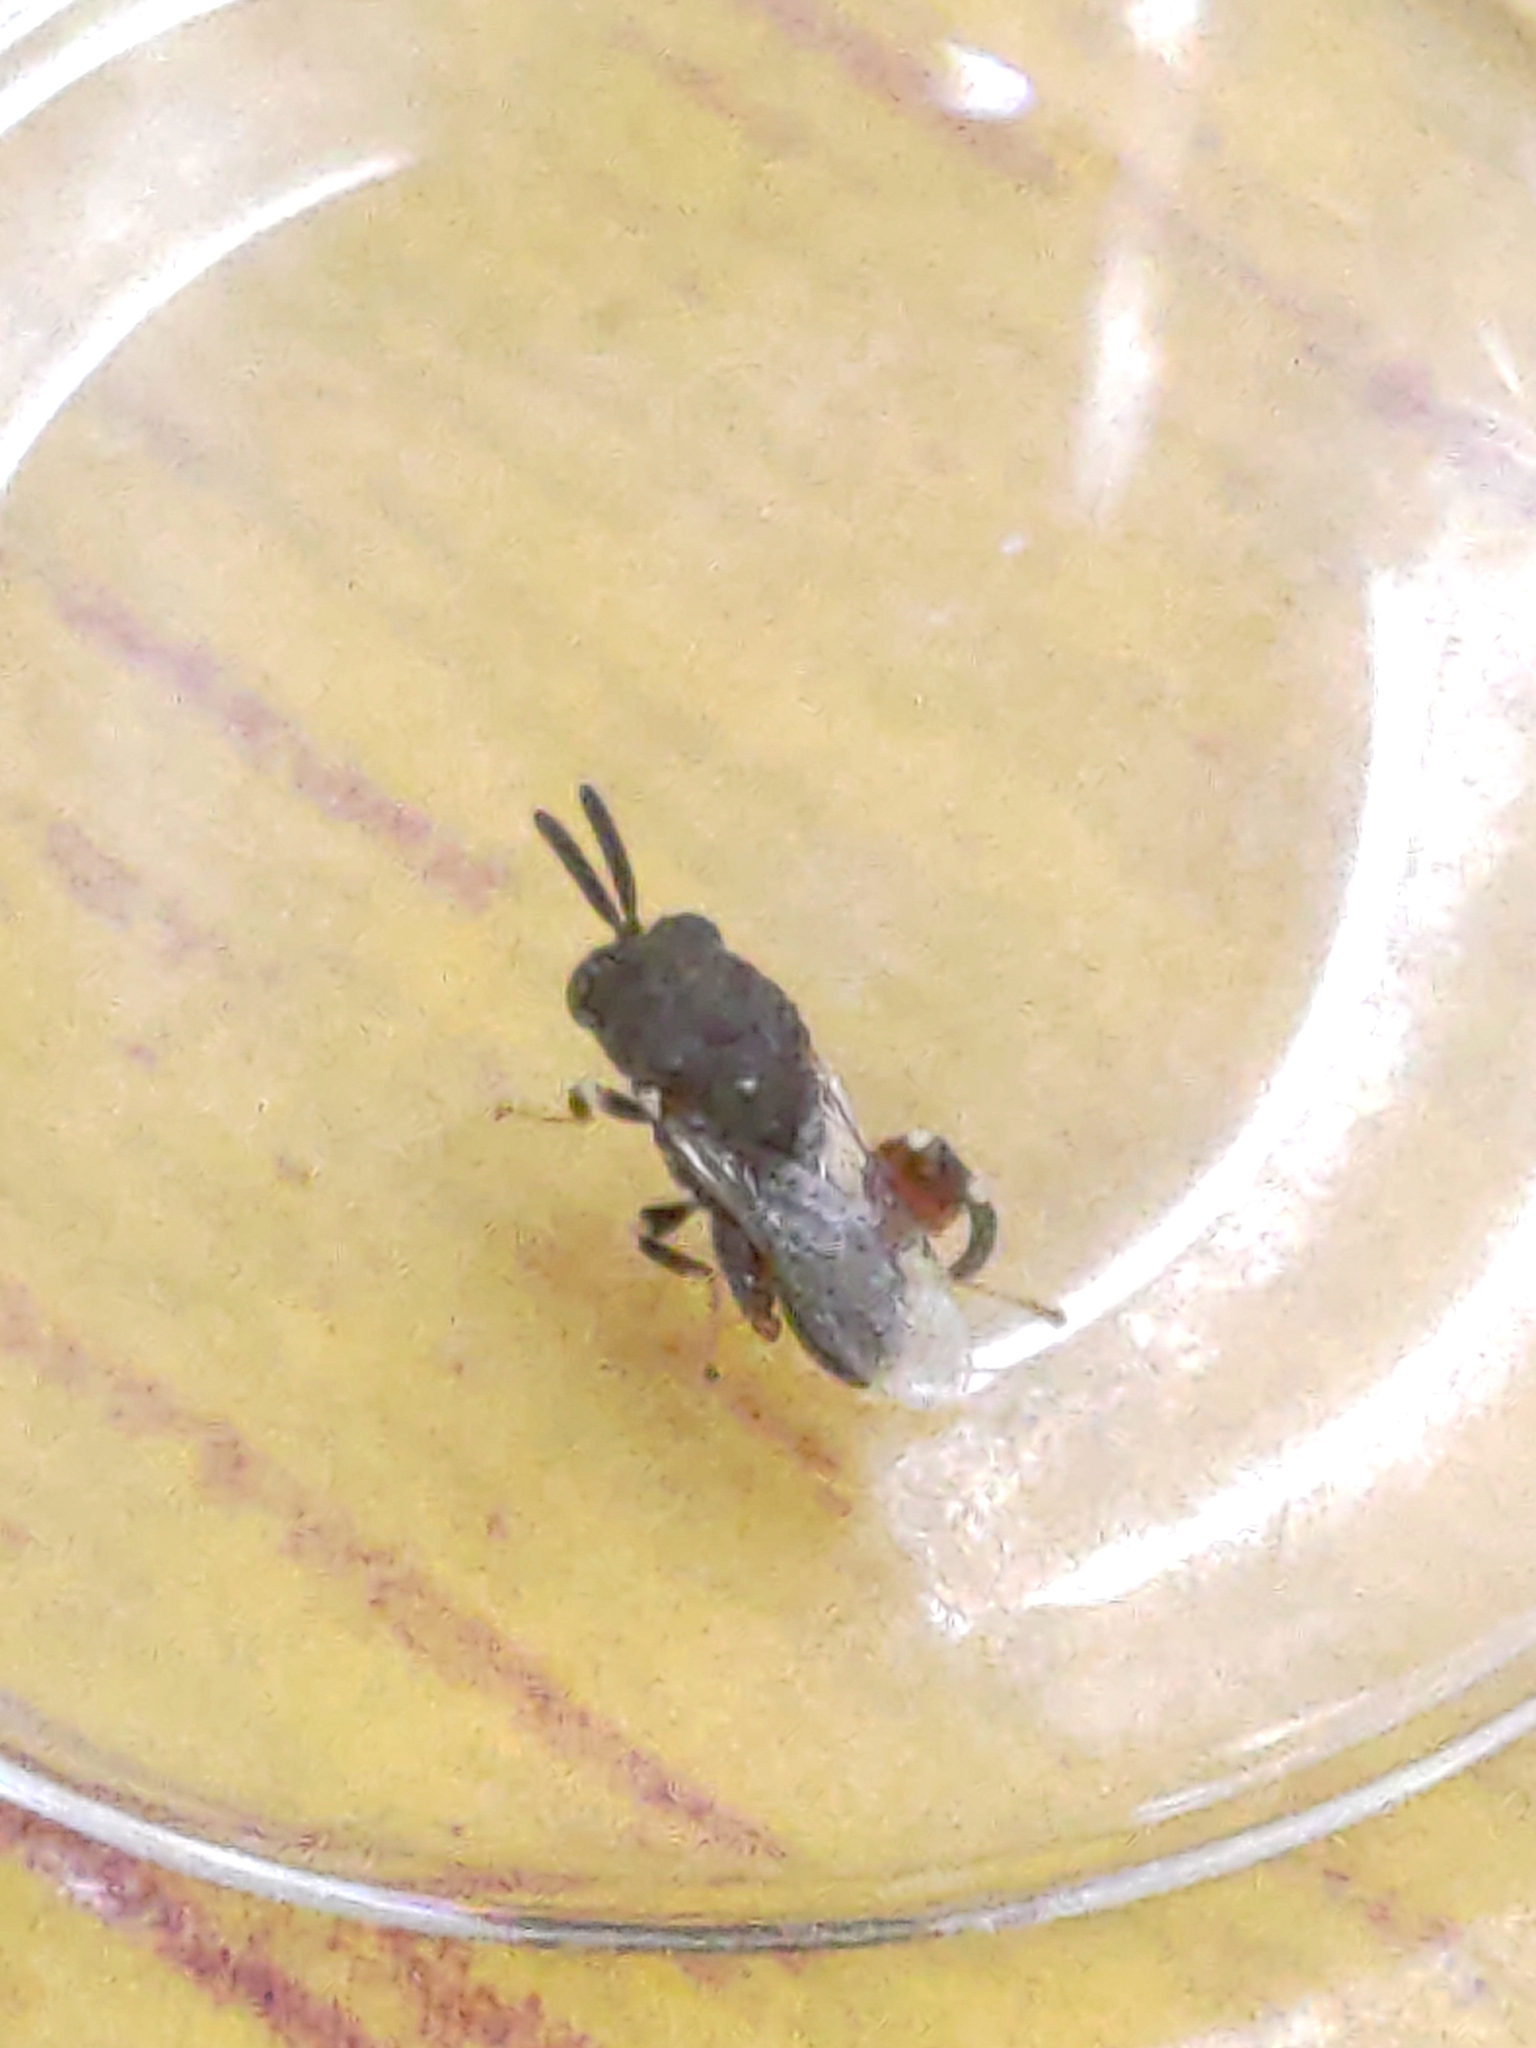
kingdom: Animalia
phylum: Arthropoda
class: Insecta
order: Hymenoptera
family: Chalcididae
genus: Brachymeria
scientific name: Brachymeria podagrica
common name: Chalcid wasp
